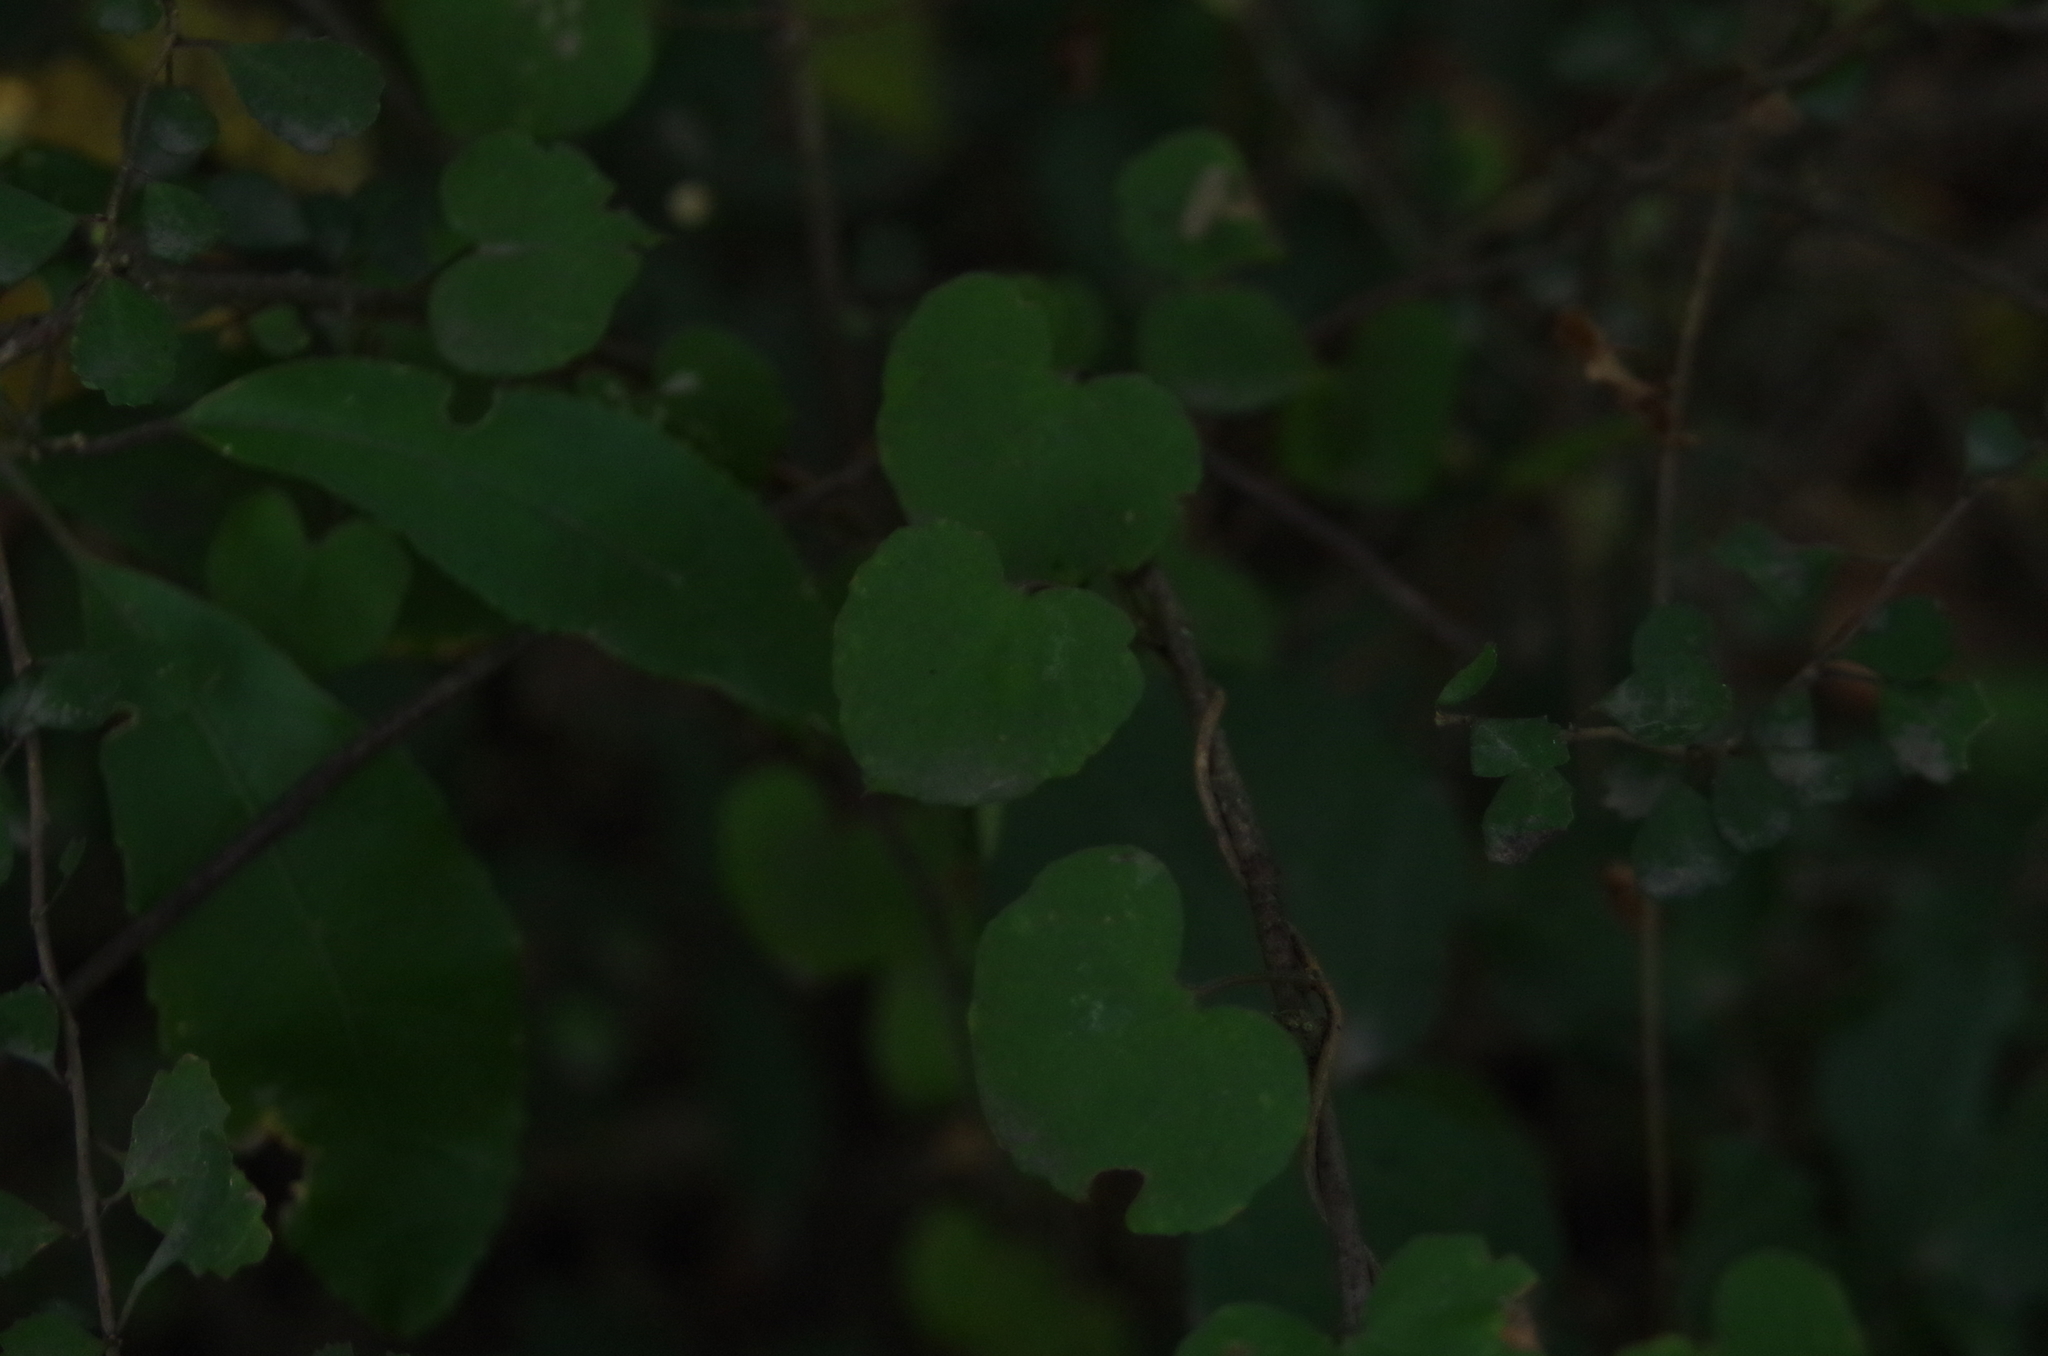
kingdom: Plantae
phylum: Tracheophyta
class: Magnoliopsida
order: Solanales
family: Convolvulaceae
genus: Calystegia
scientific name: Calystegia tuguriorum
